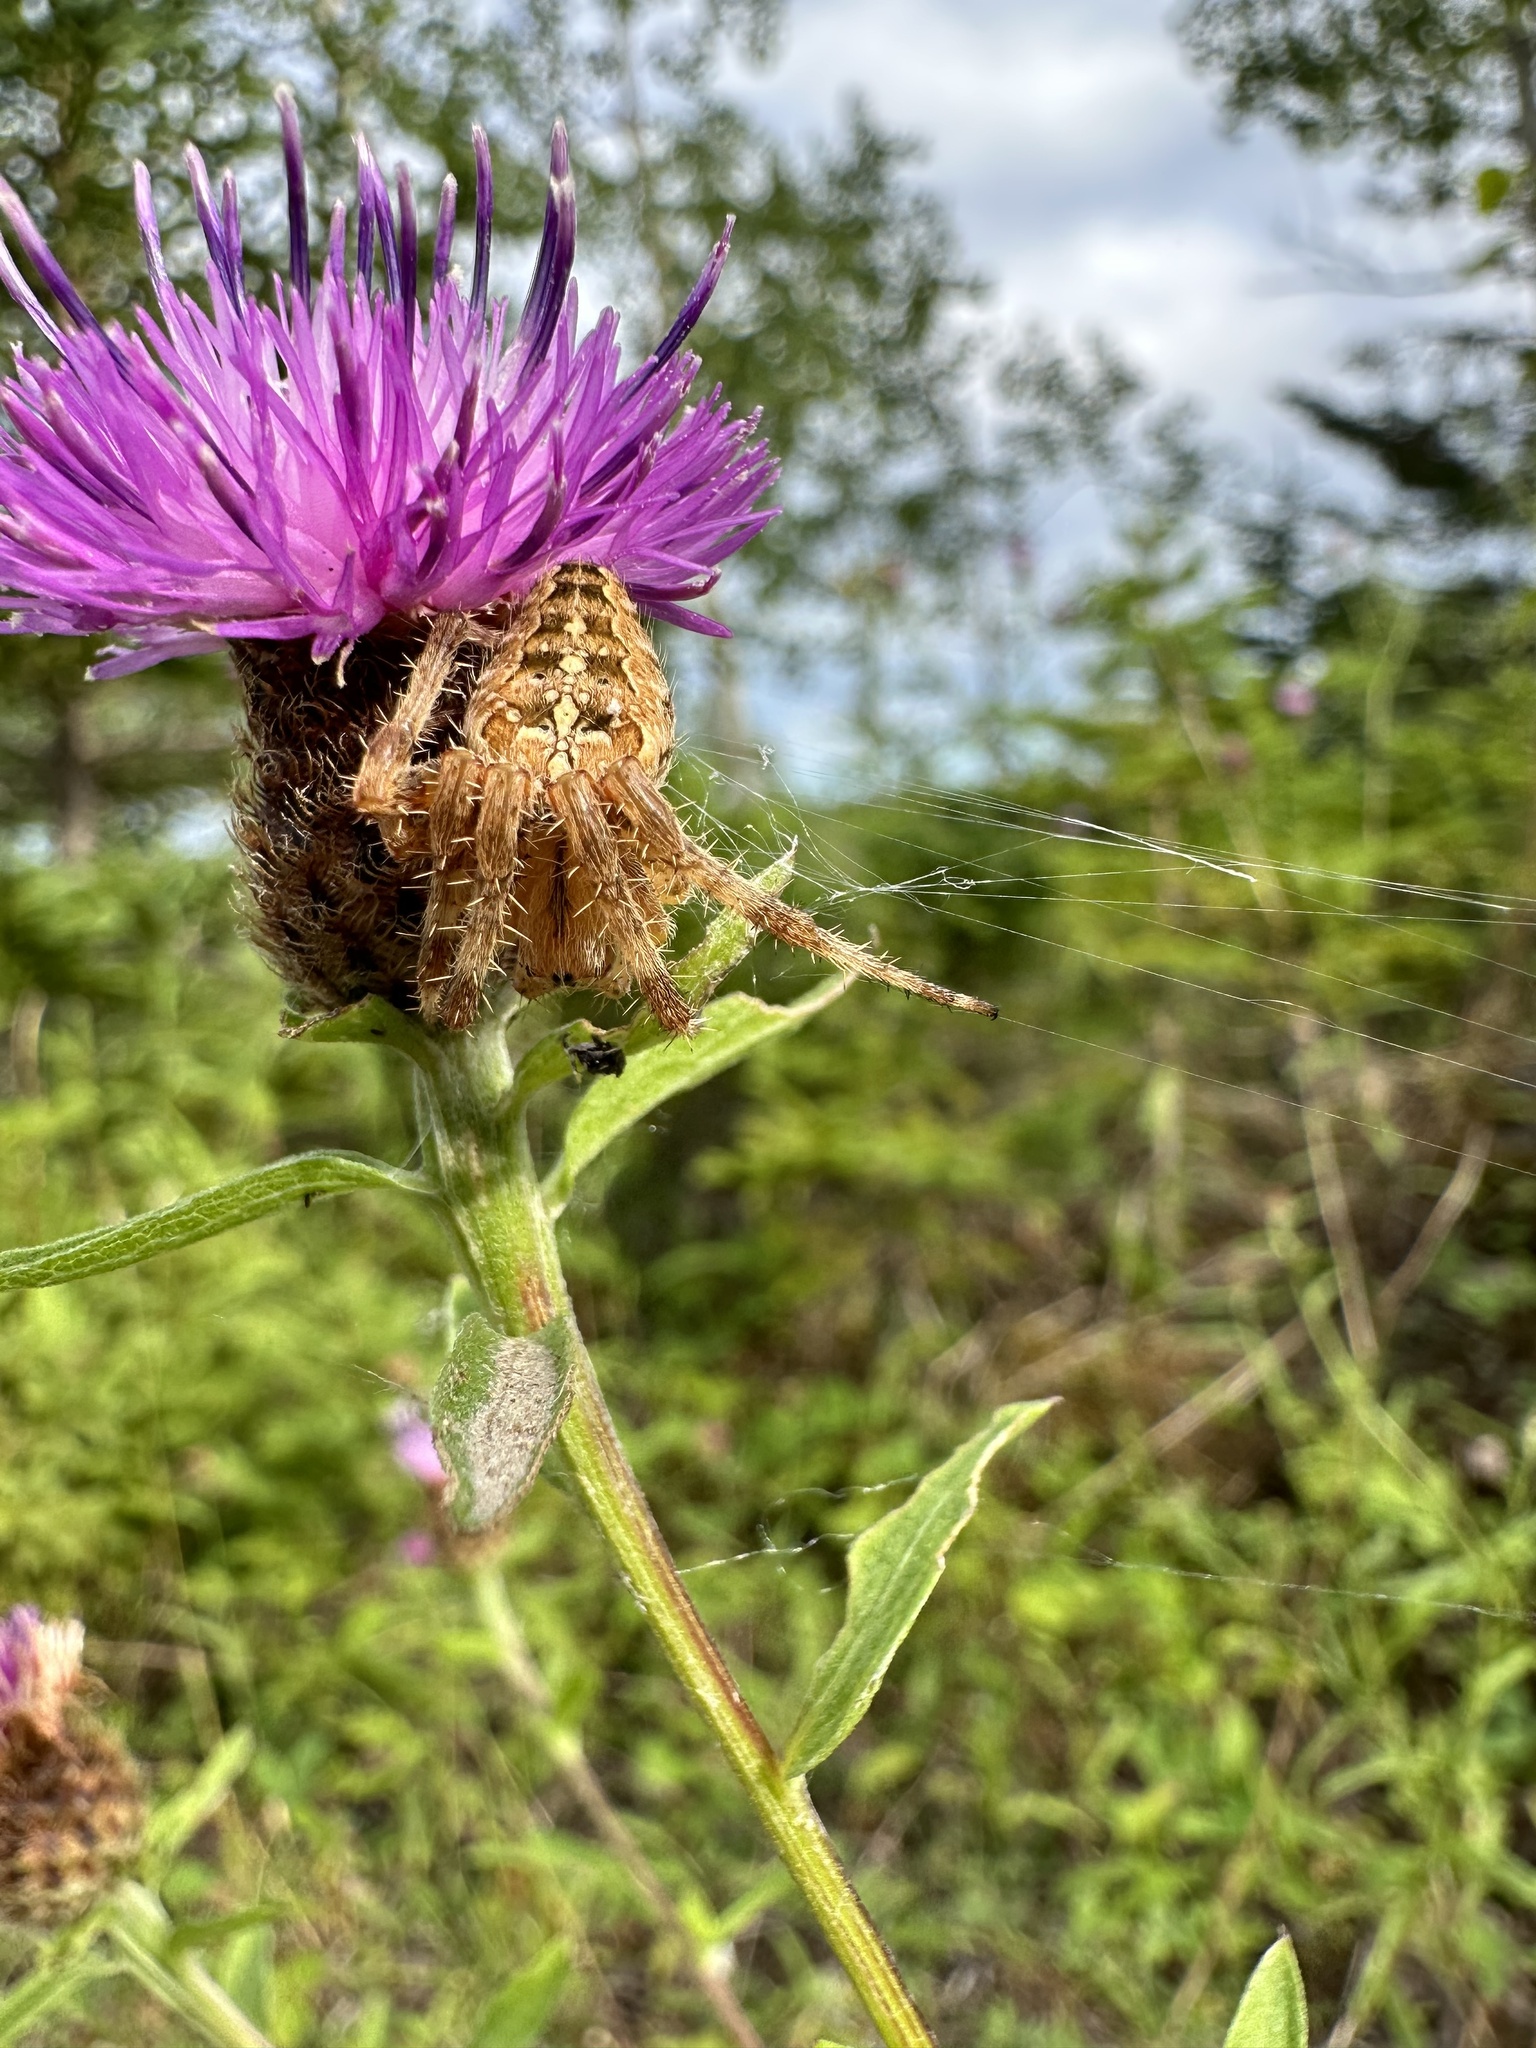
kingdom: Animalia
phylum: Arthropoda
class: Arachnida
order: Araneae
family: Araneidae
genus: Araneus
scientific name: Araneus diadematus
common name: Cross orbweaver
